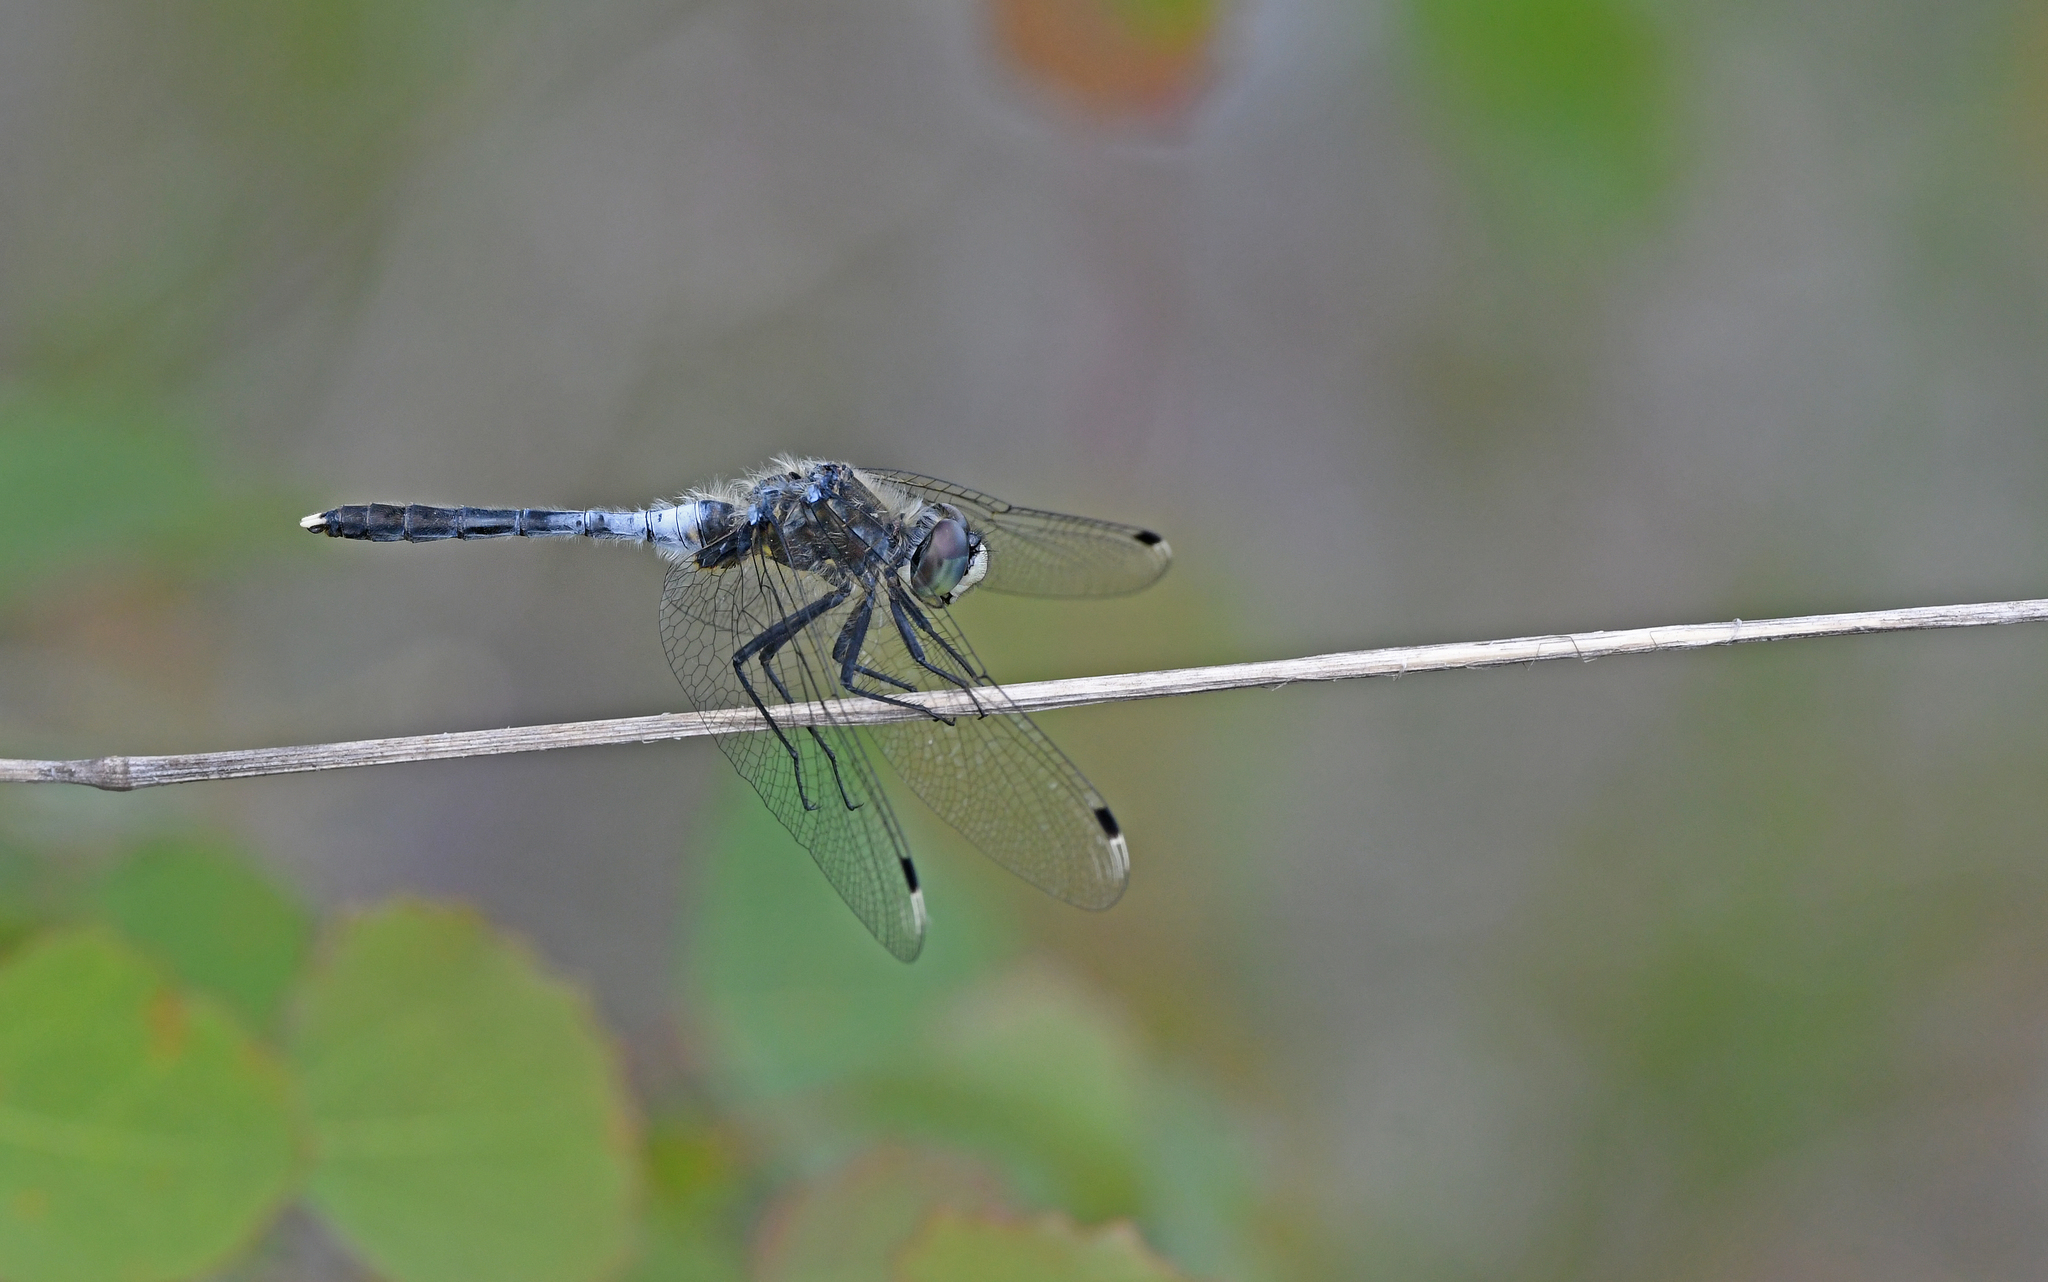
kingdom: Animalia
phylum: Arthropoda
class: Insecta
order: Odonata
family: Libellulidae
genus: Leucorrhinia
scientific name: Leucorrhinia albifrons
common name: Dark whiteface
